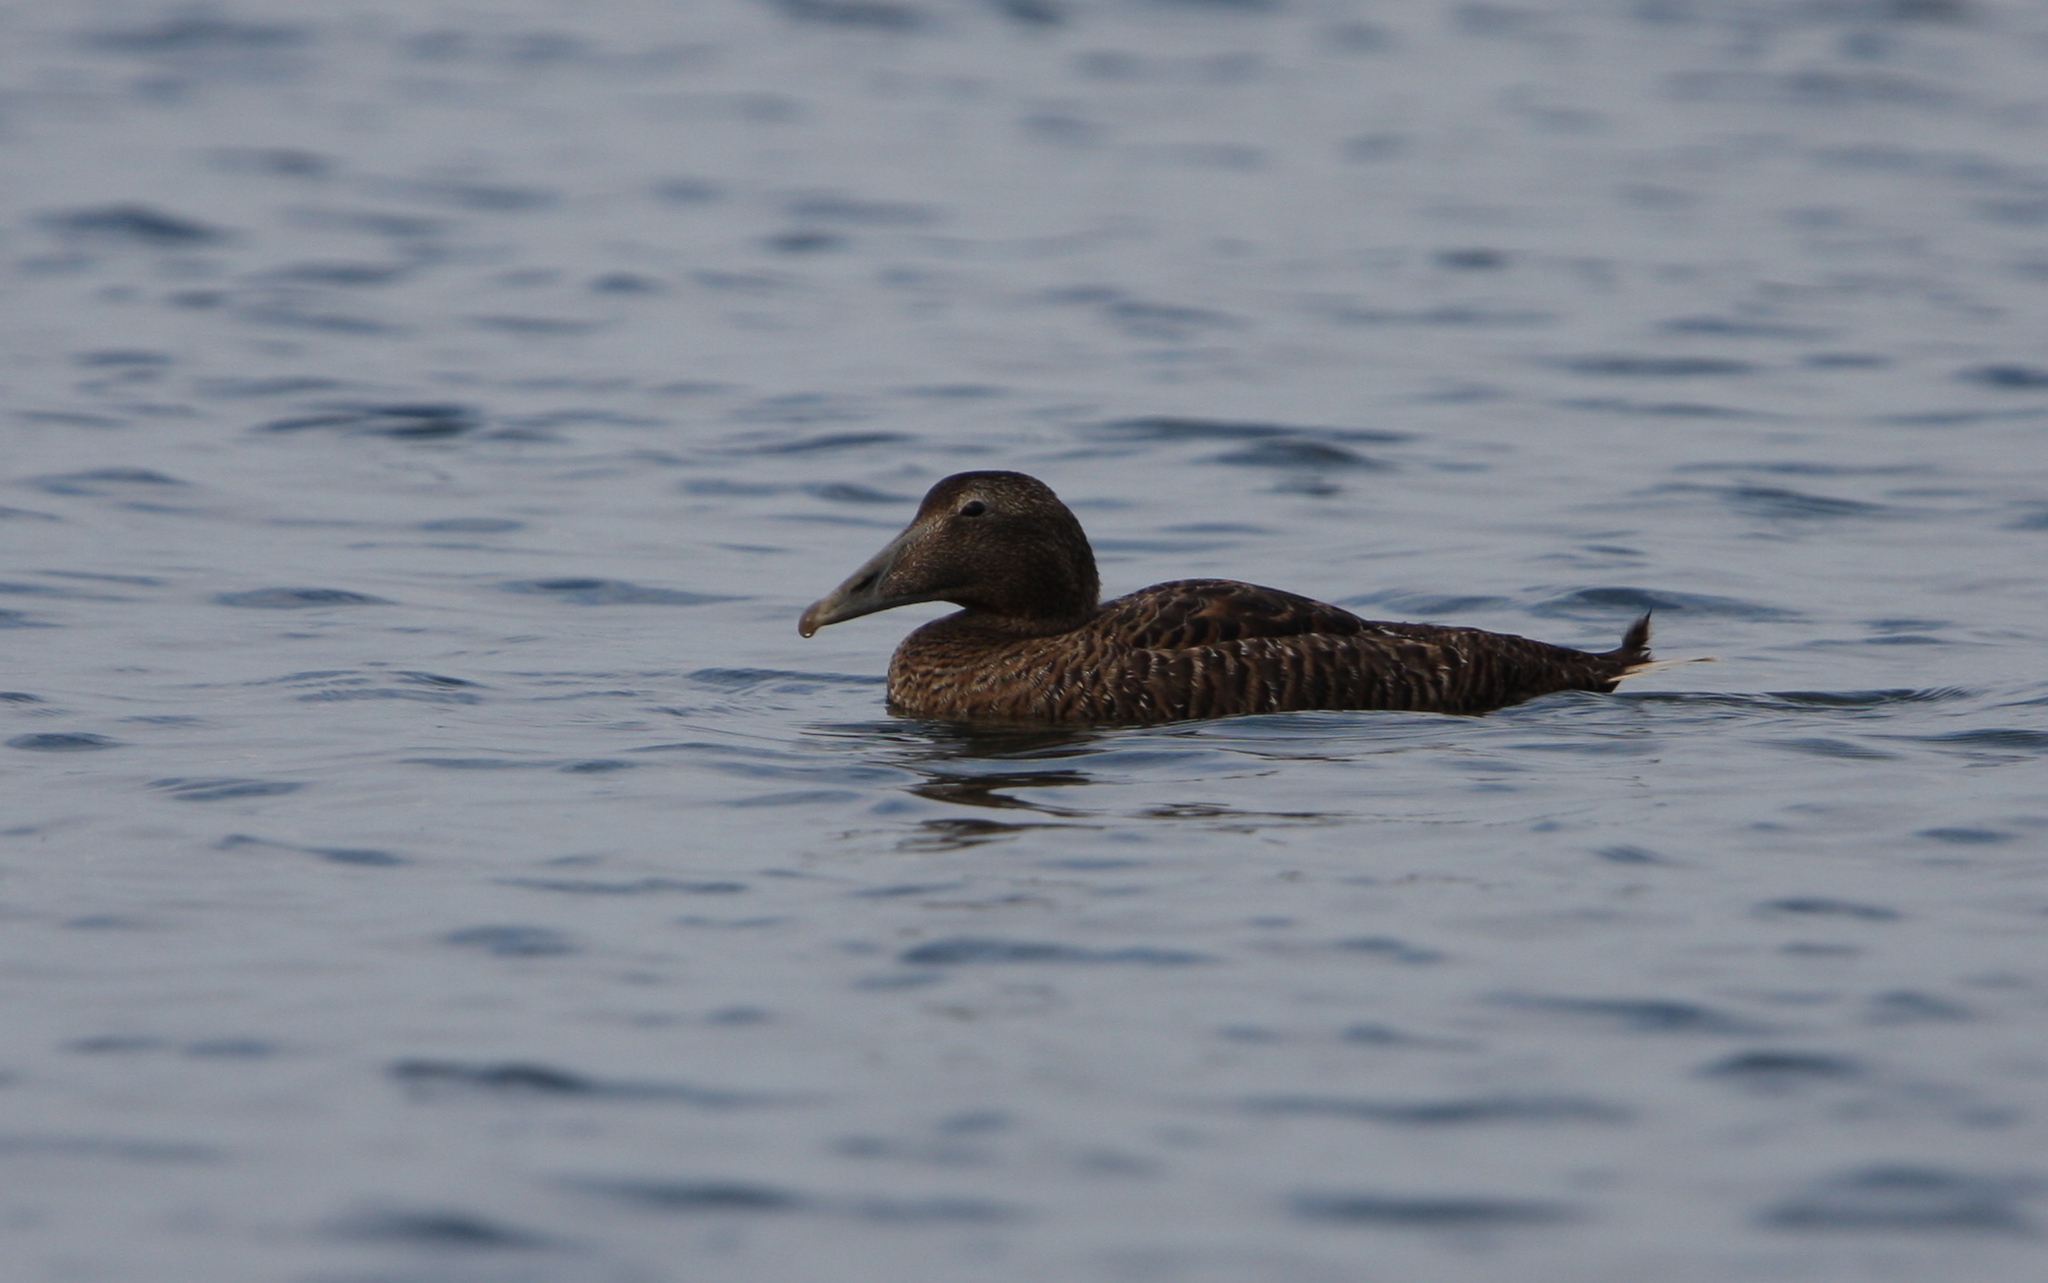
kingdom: Animalia
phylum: Chordata
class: Aves
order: Anseriformes
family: Anatidae
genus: Somateria
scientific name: Somateria mollissima
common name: Common eider
